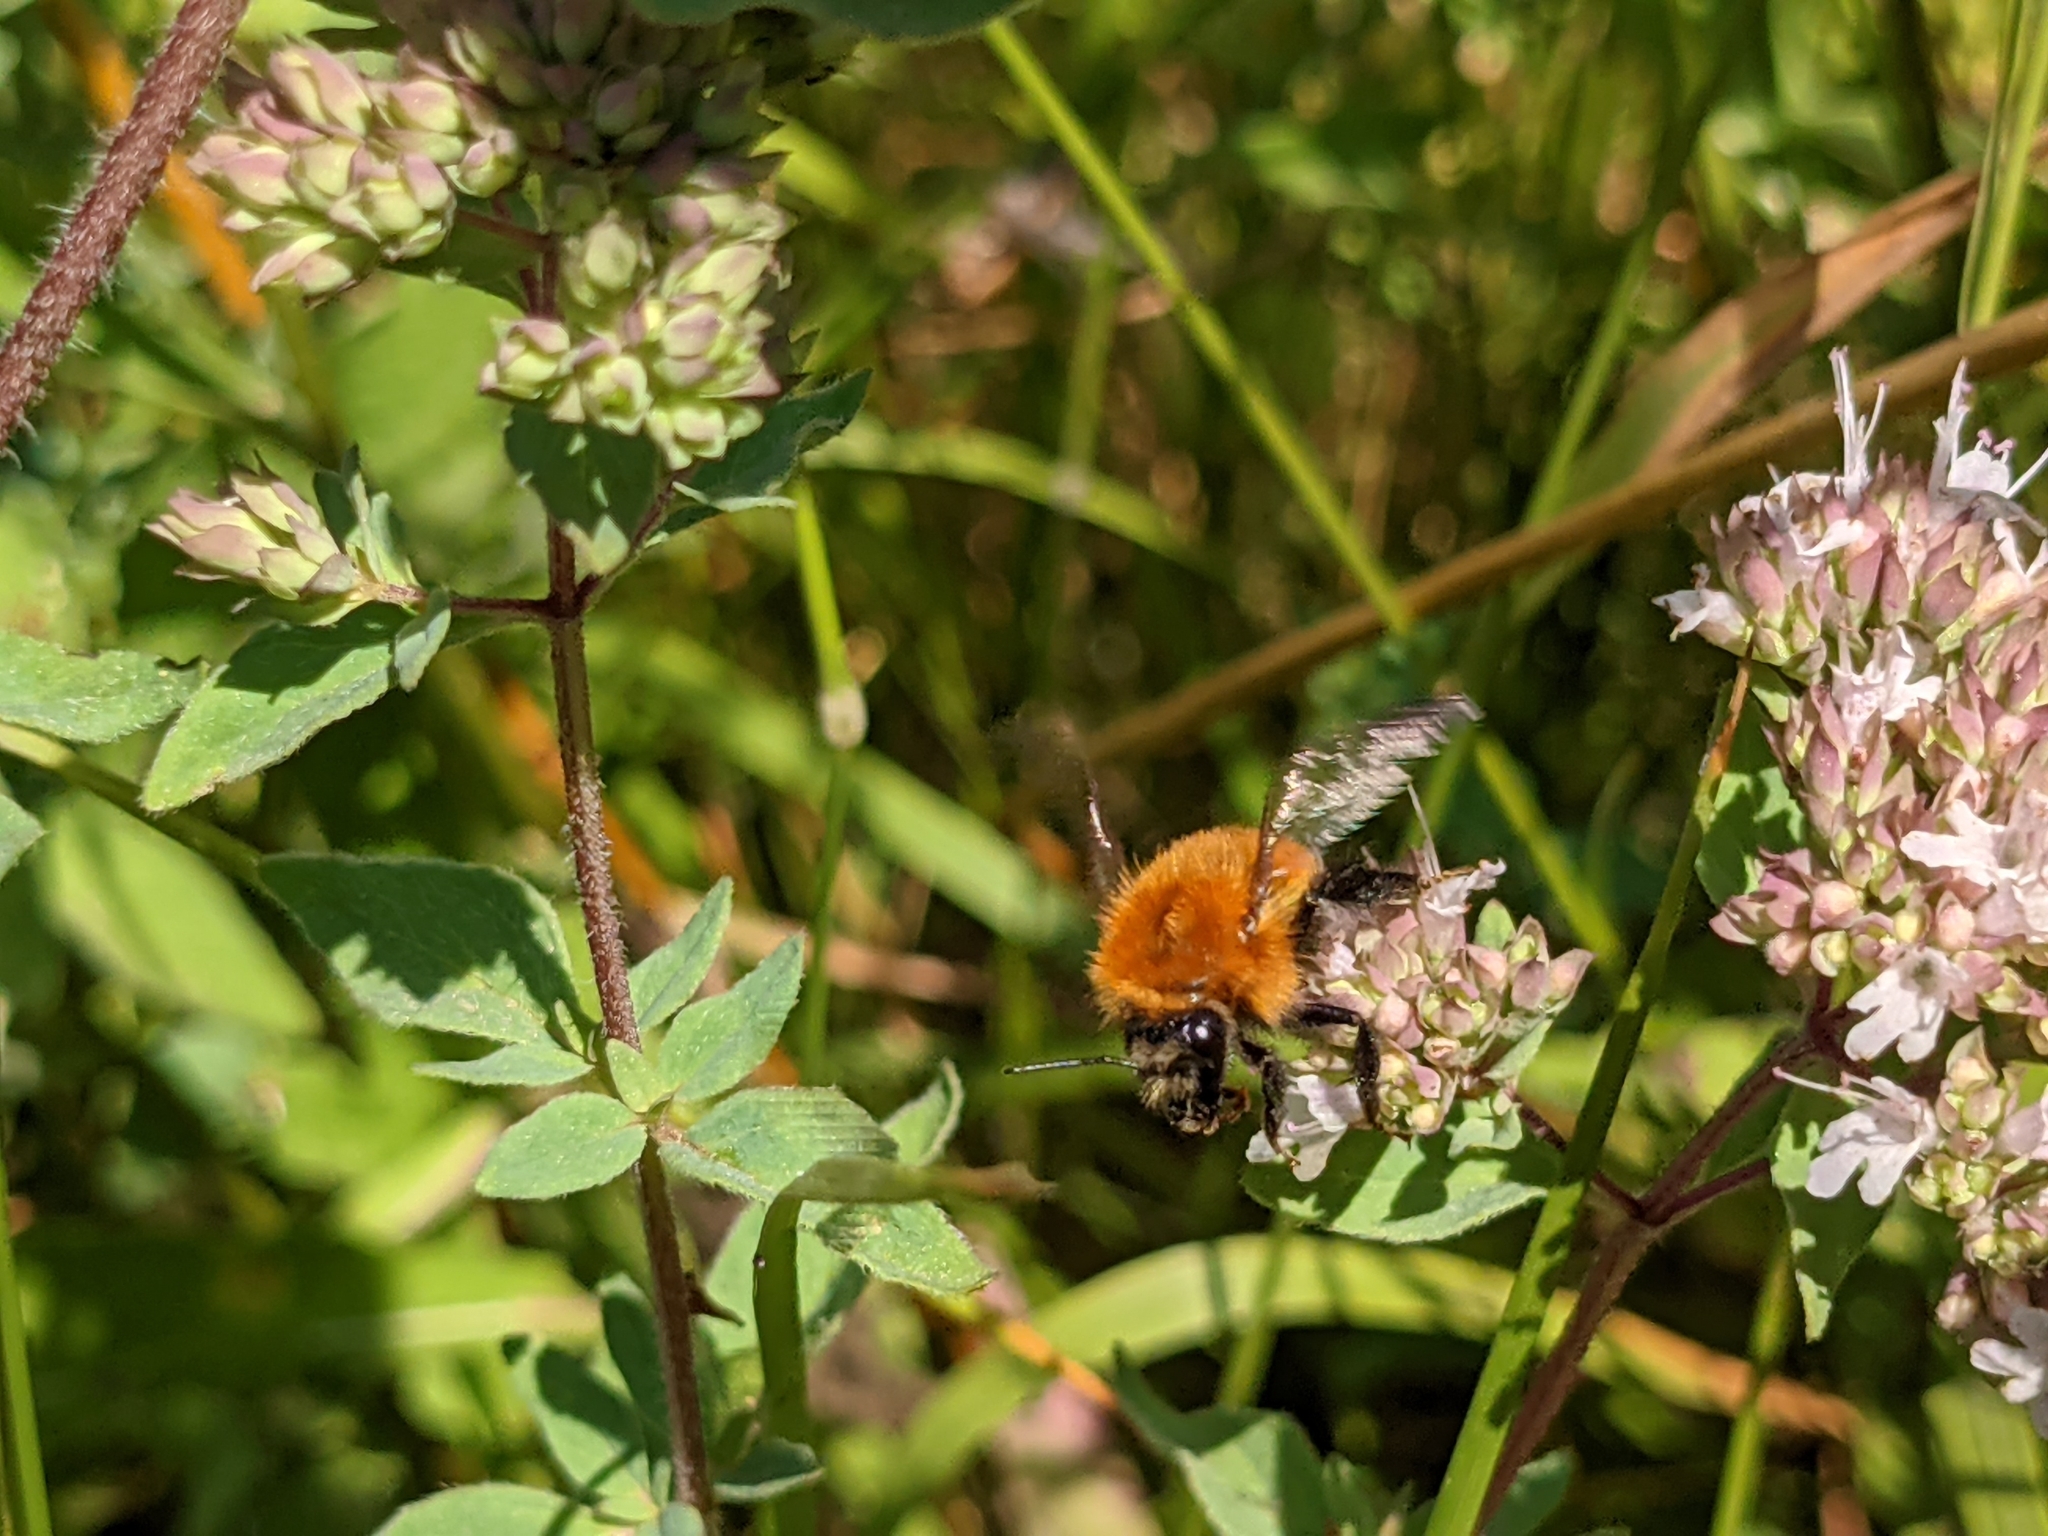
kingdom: Animalia
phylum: Arthropoda
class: Insecta
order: Hymenoptera
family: Apidae
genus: Bombus
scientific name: Bombus pascuorum
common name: Common carder bee
